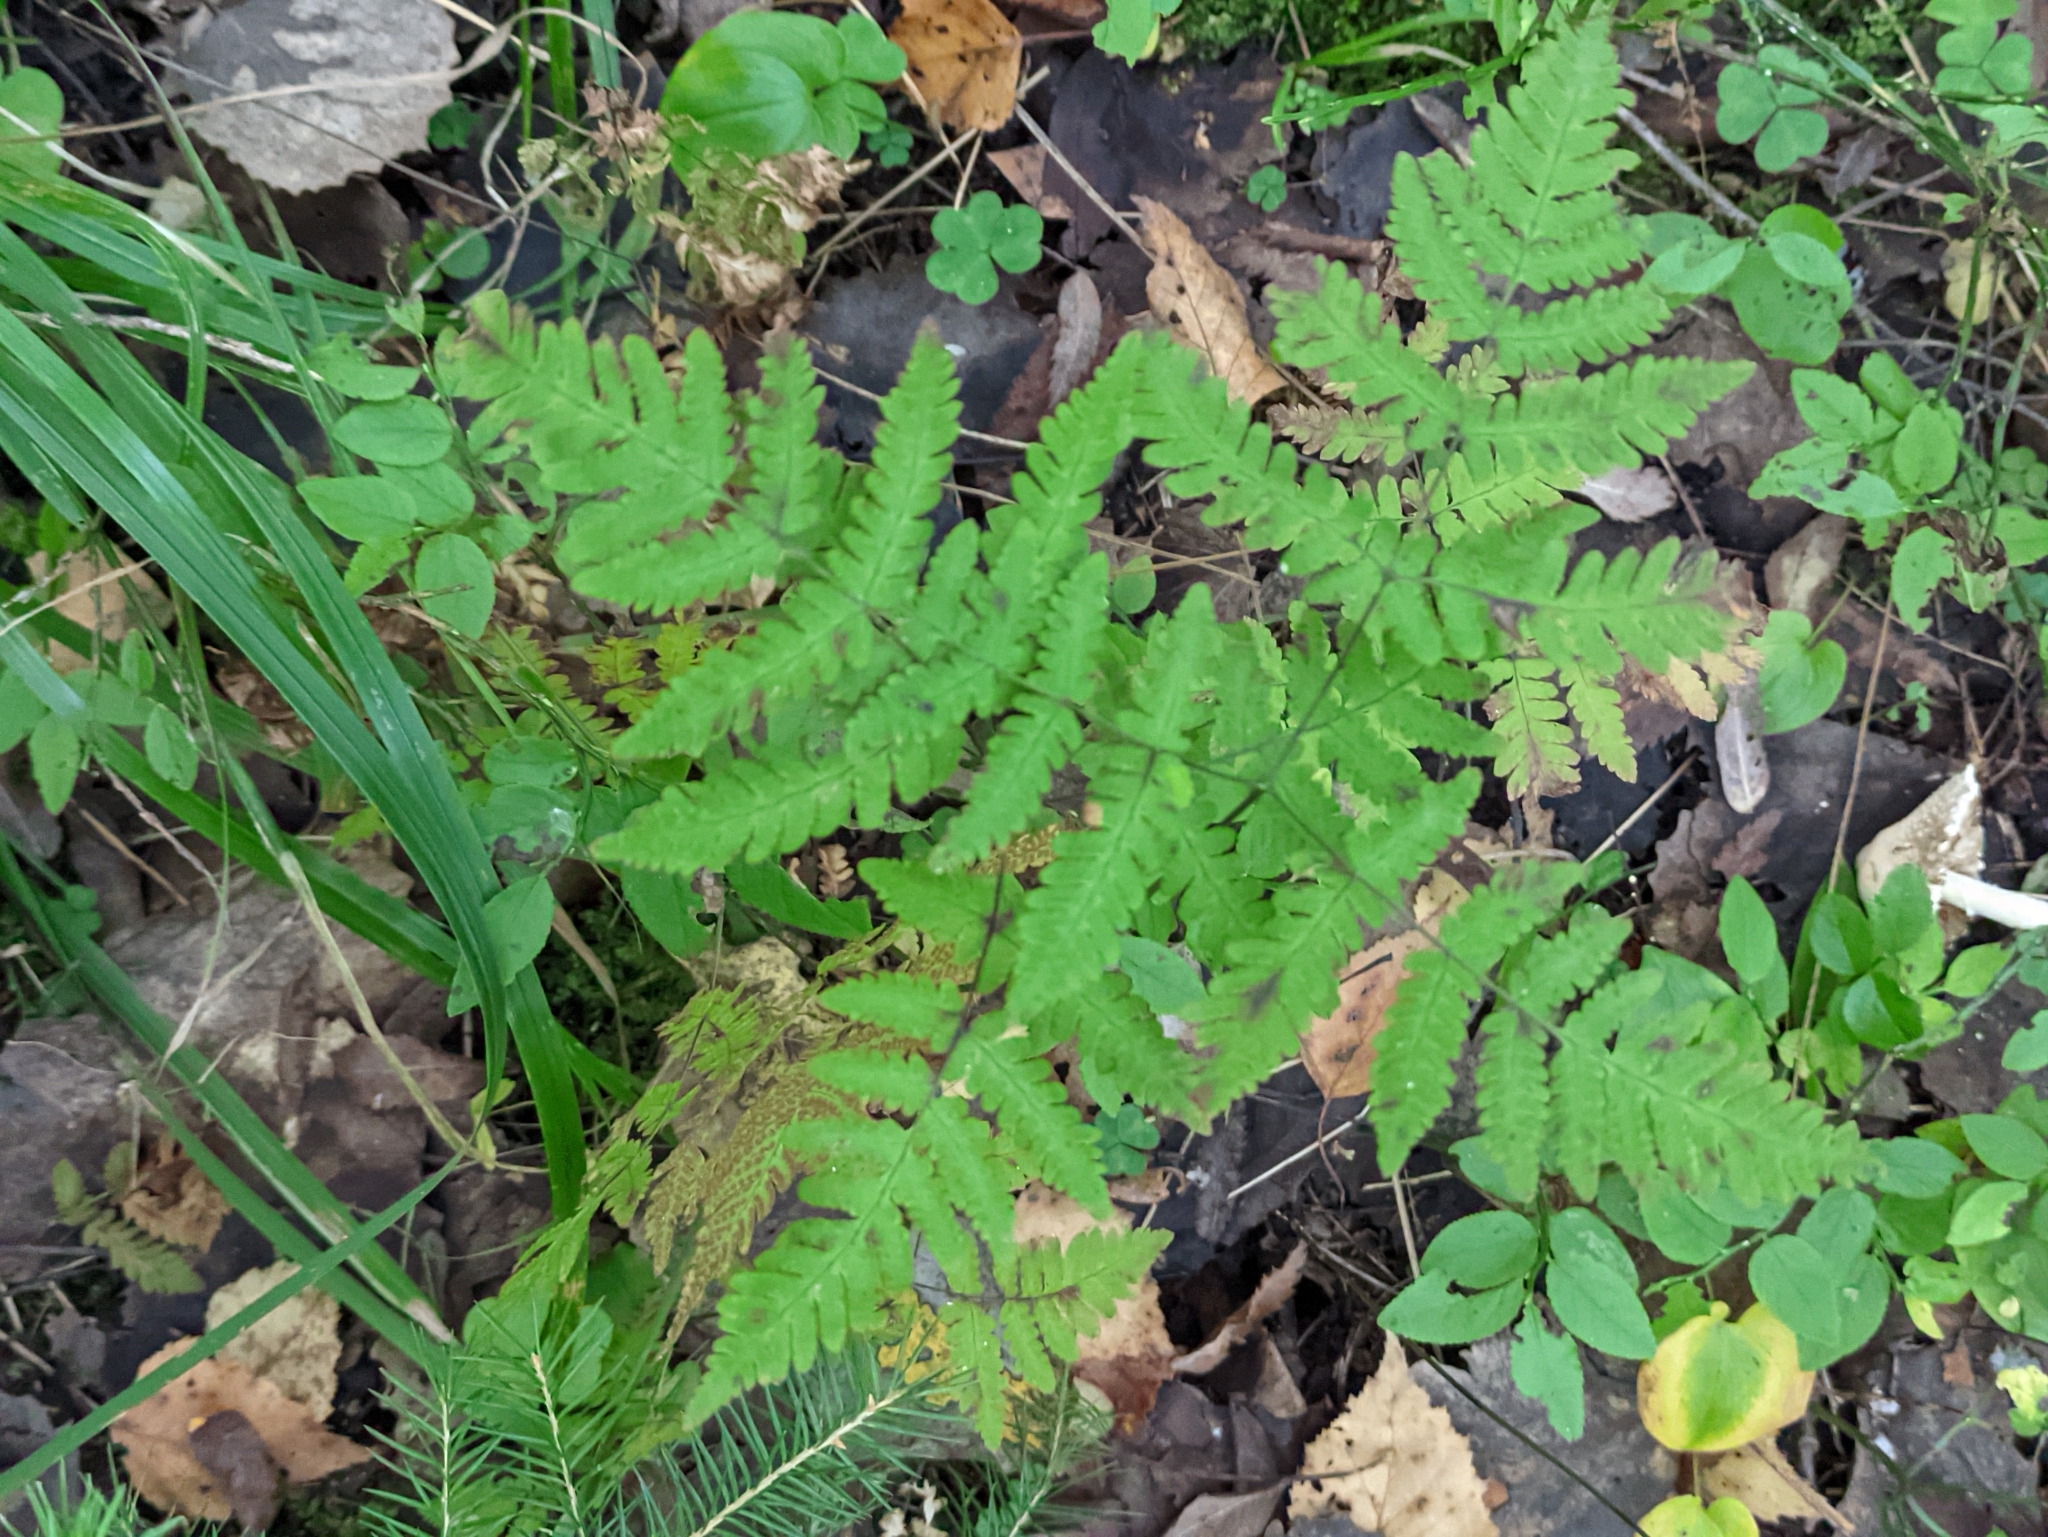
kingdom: Plantae
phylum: Tracheophyta
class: Polypodiopsida
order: Polypodiales
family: Cystopteridaceae
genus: Gymnocarpium
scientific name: Gymnocarpium dryopteris
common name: Oak fern
